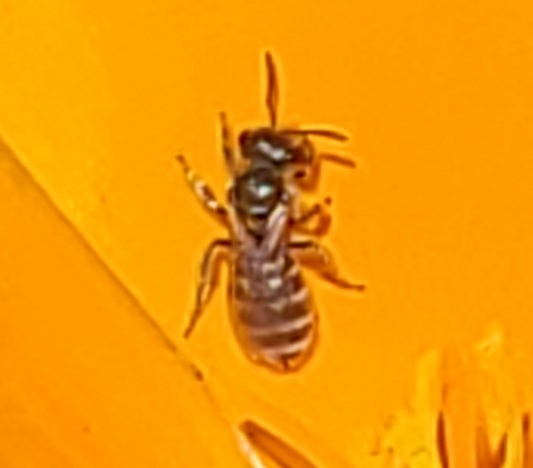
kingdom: Animalia
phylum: Arthropoda
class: Insecta
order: Hymenoptera
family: Halictidae
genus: Halictus
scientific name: Halictus tripartitus
